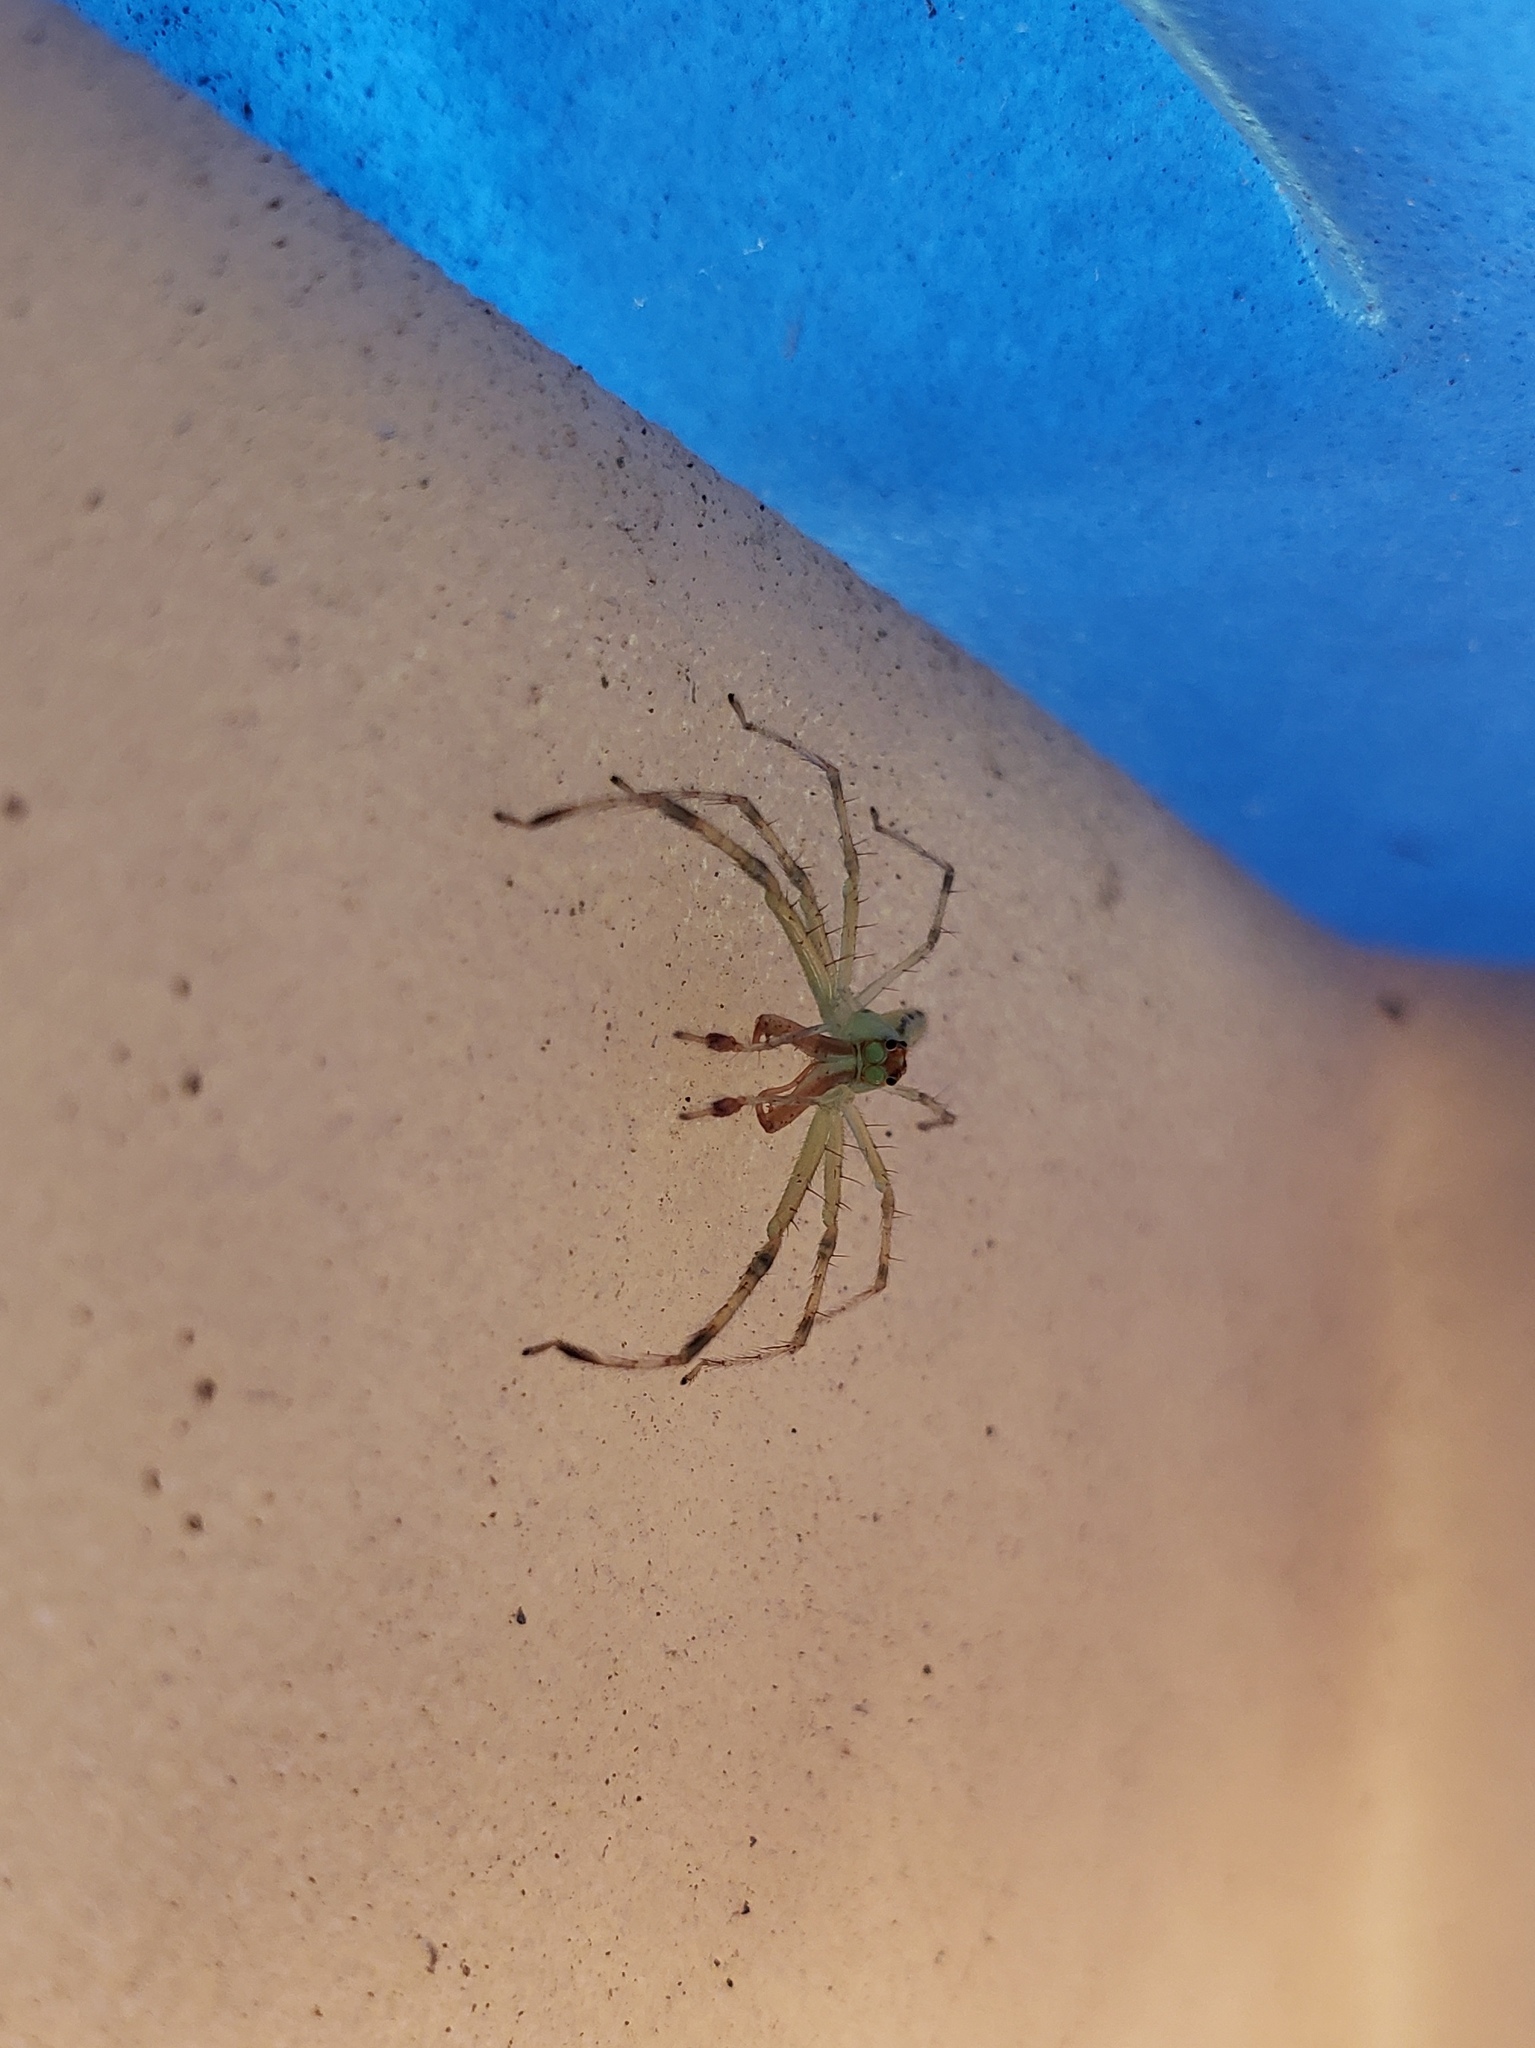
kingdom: Animalia
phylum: Arthropoda
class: Arachnida
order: Araneae
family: Salticidae
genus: Lyssomanes
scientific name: Lyssomanes viridis
